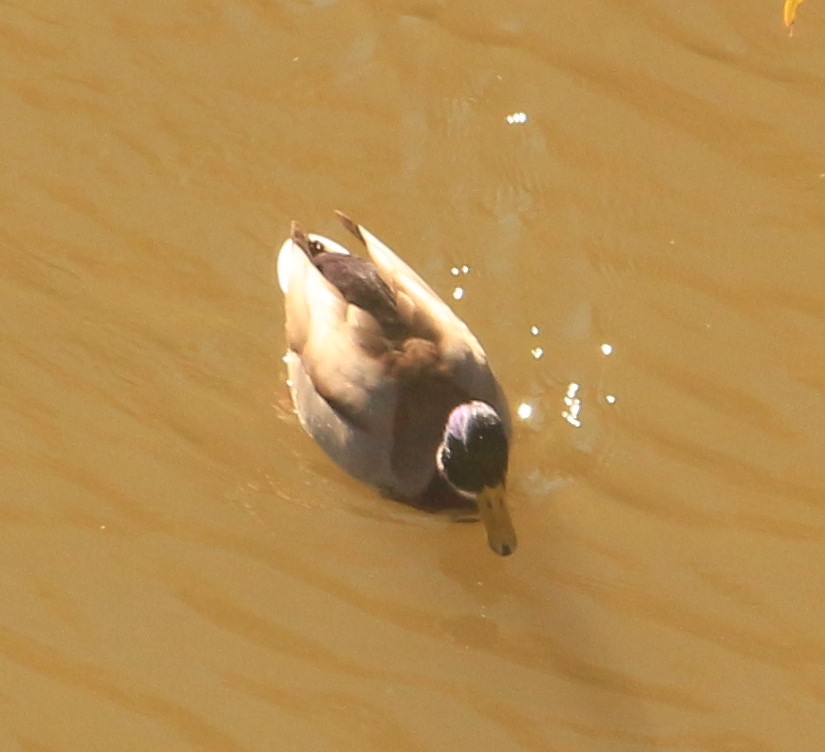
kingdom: Animalia
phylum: Chordata
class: Aves
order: Anseriformes
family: Anatidae
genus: Anas
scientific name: Anas platyrhynchos
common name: Mallard
